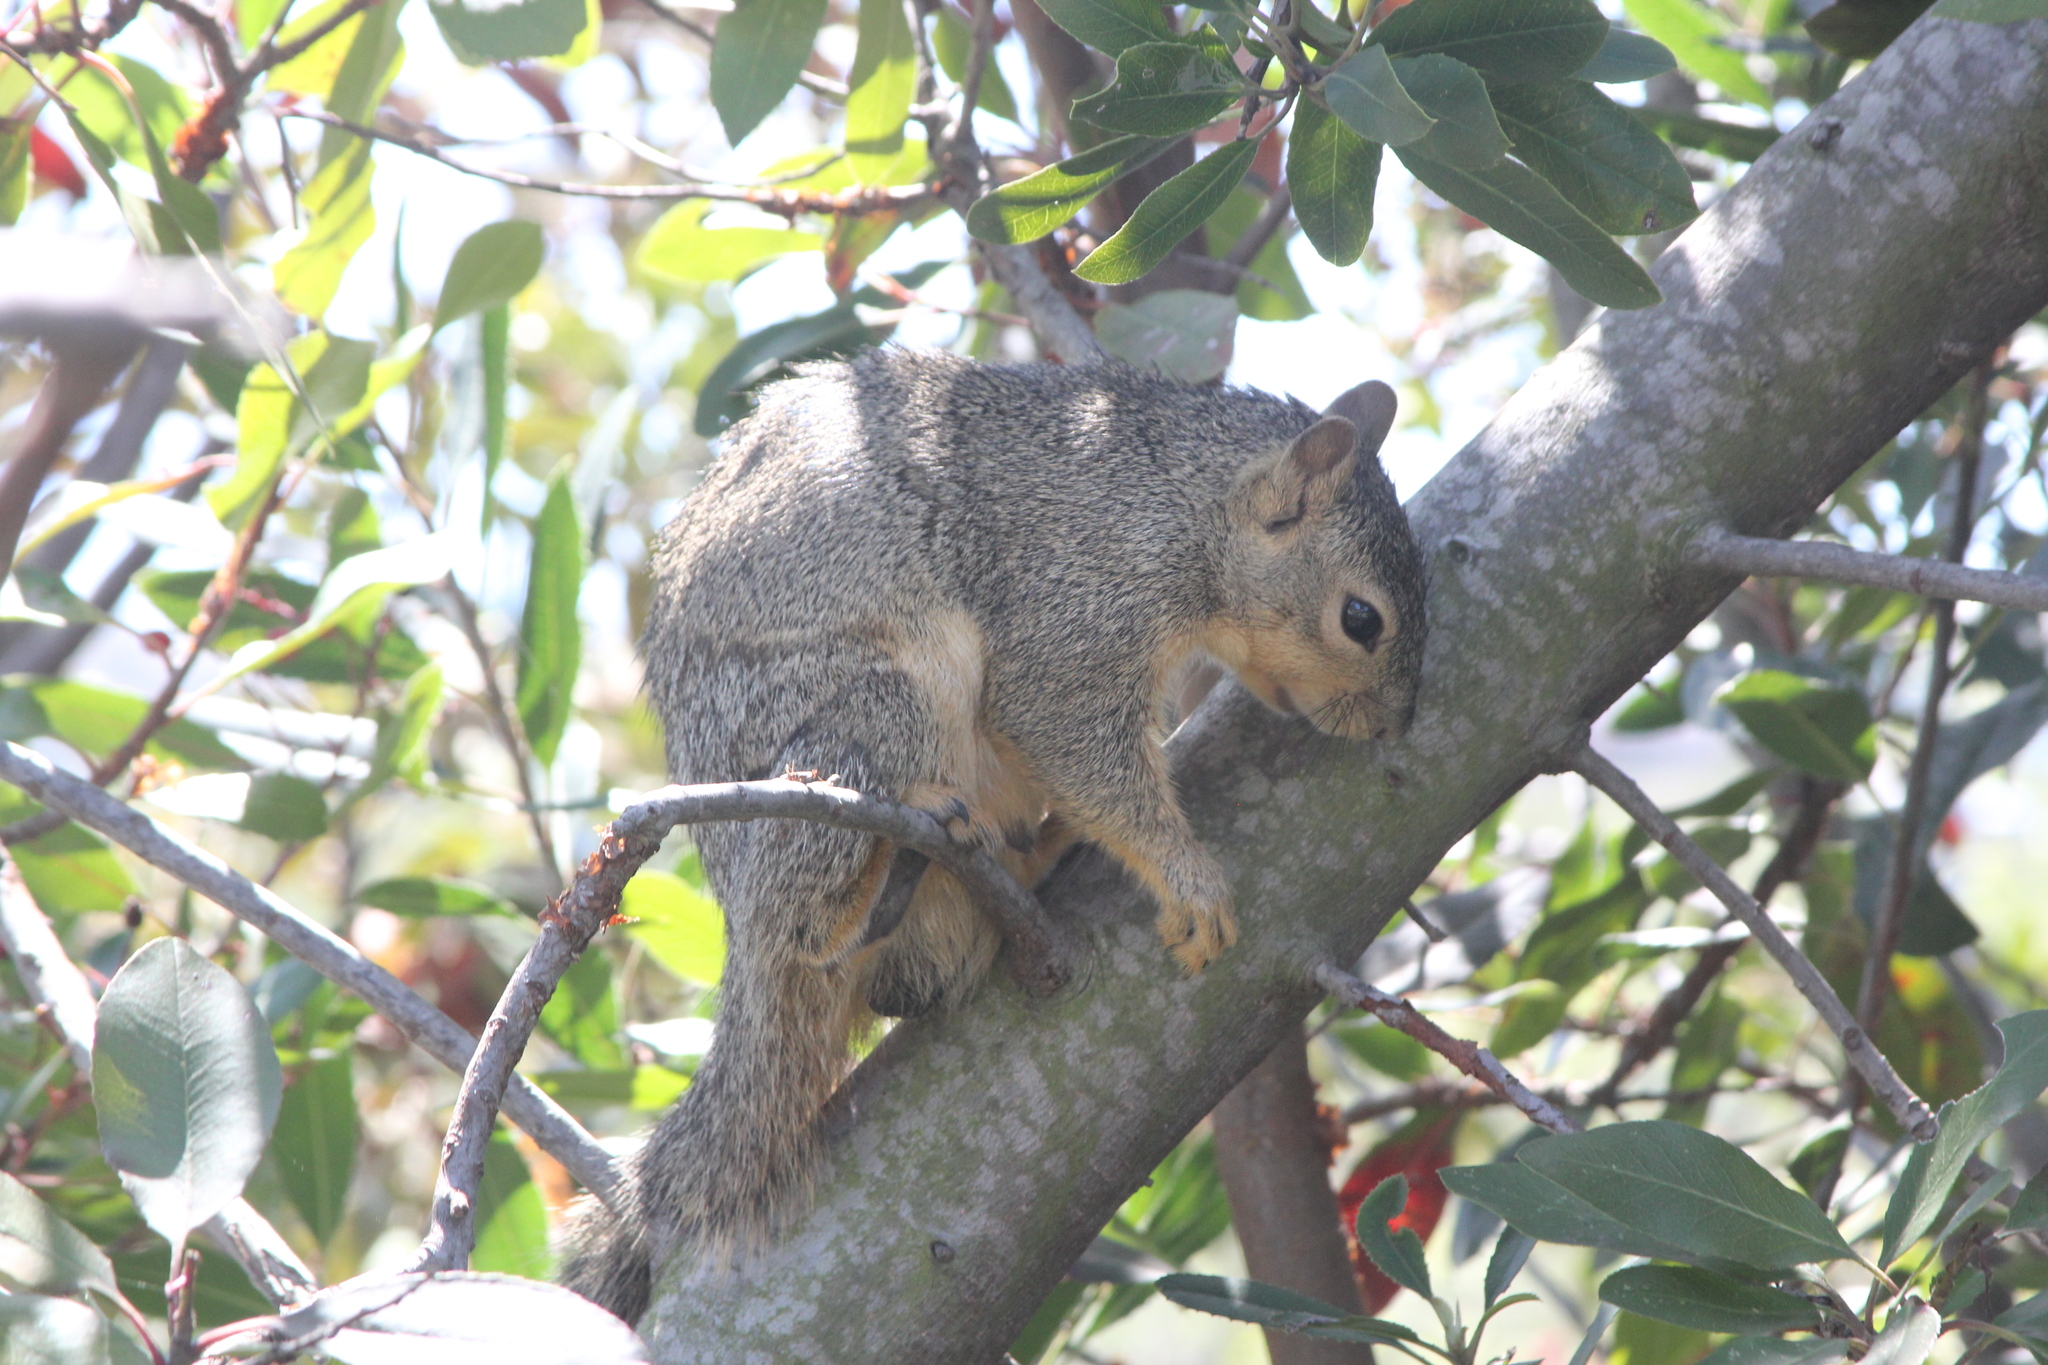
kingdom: Animalia
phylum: Chordata
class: Mammalia
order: Rodentia
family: Sciuridae
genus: Sciurus
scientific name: Sciurus niger
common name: Fox squirrel
